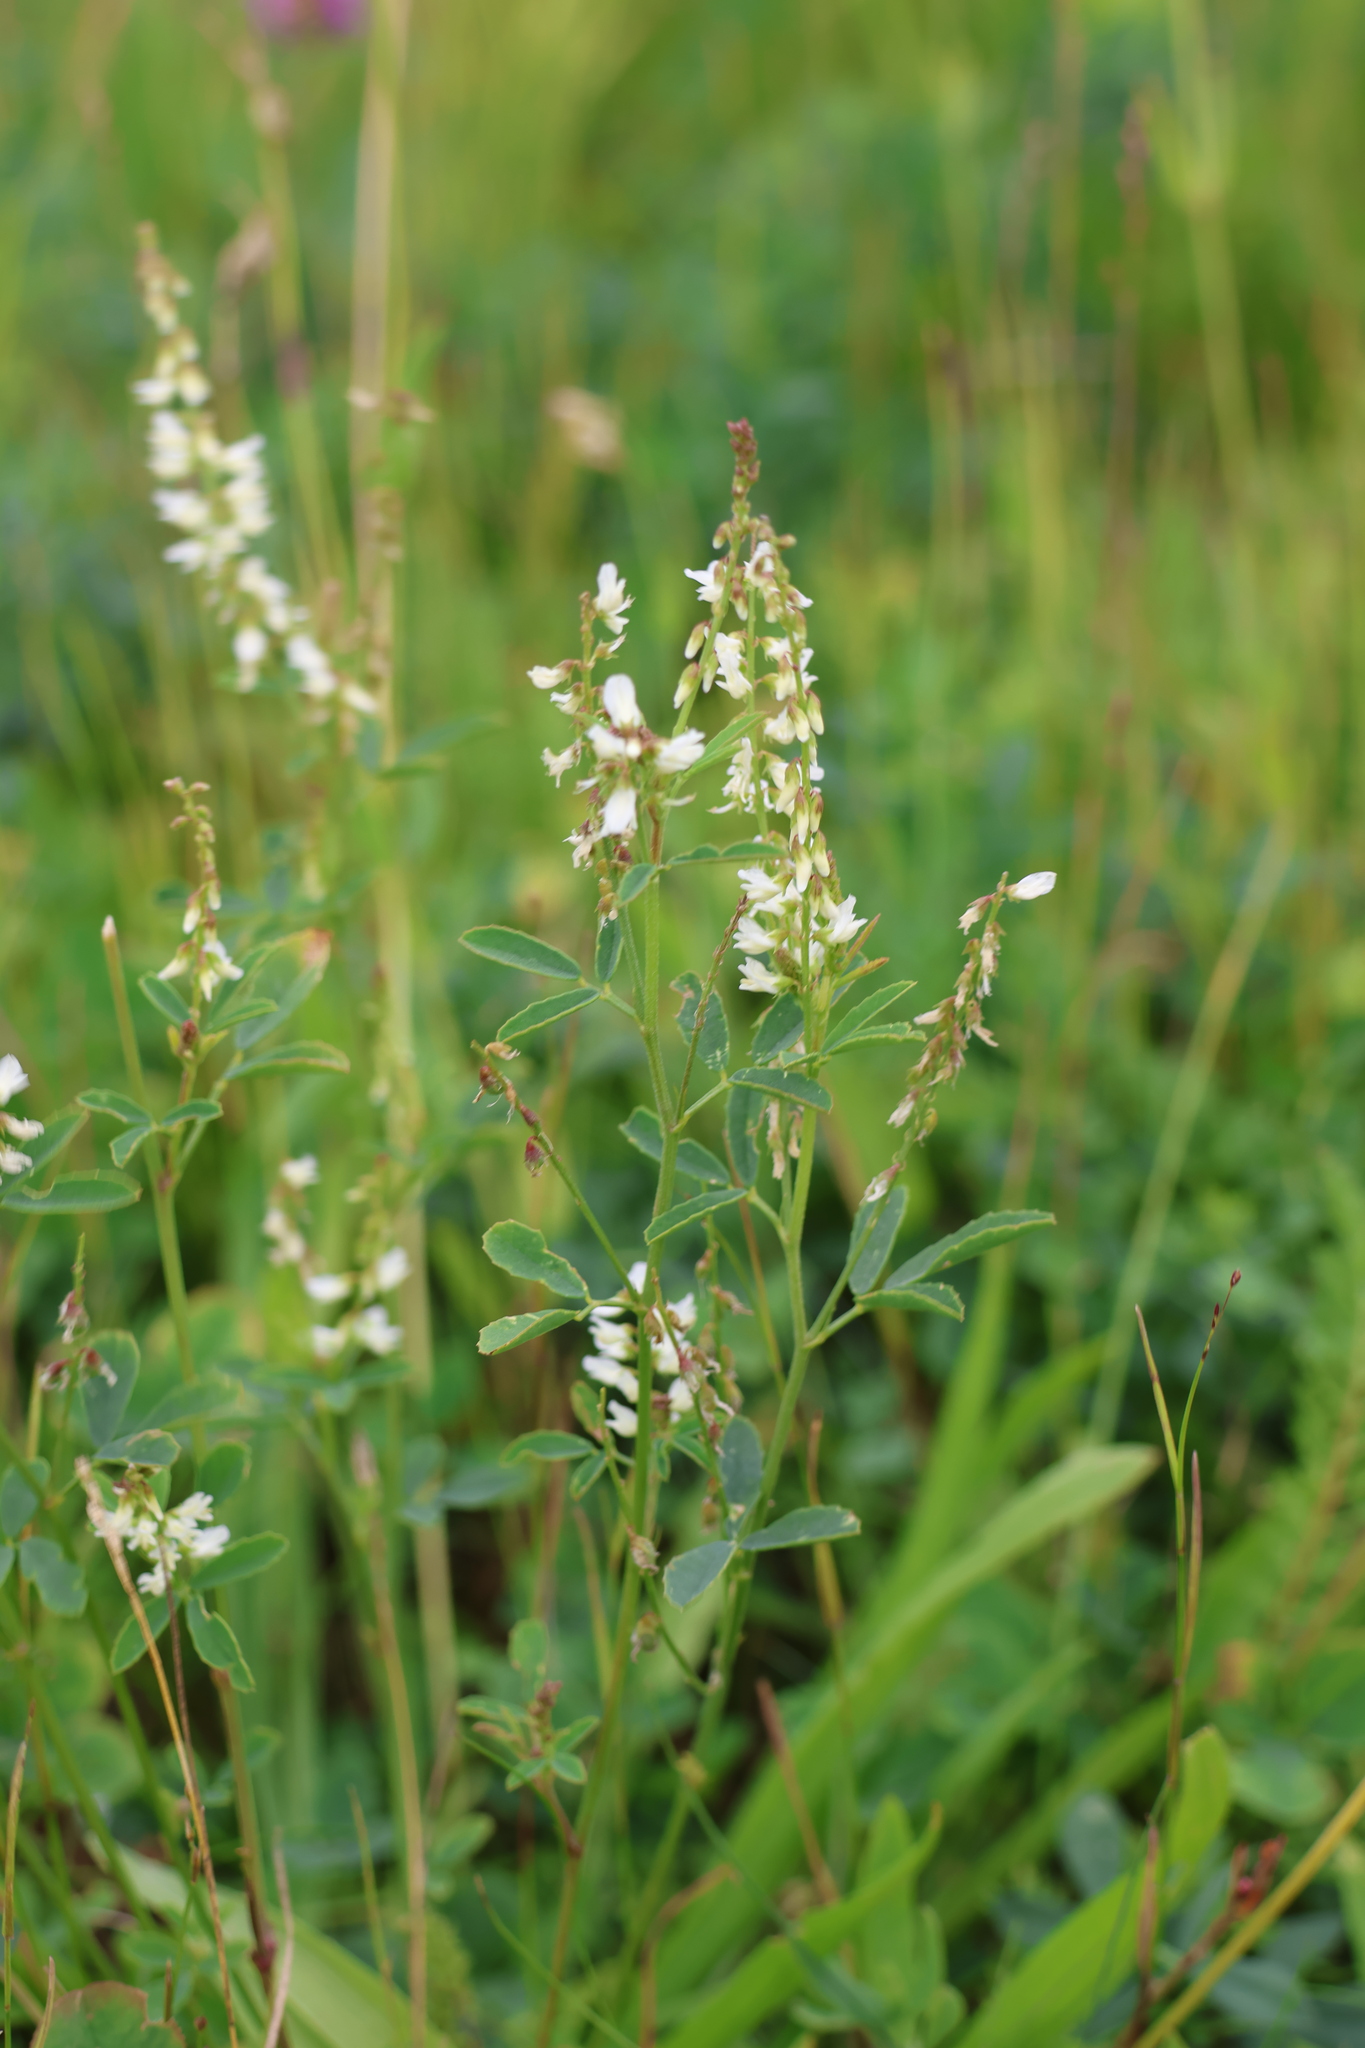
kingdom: Plantae
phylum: Tracheophyta
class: Magnoliopsida
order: Fabales
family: Fabaceae
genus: Melilotus
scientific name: Melilotus albus
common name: White melilot
